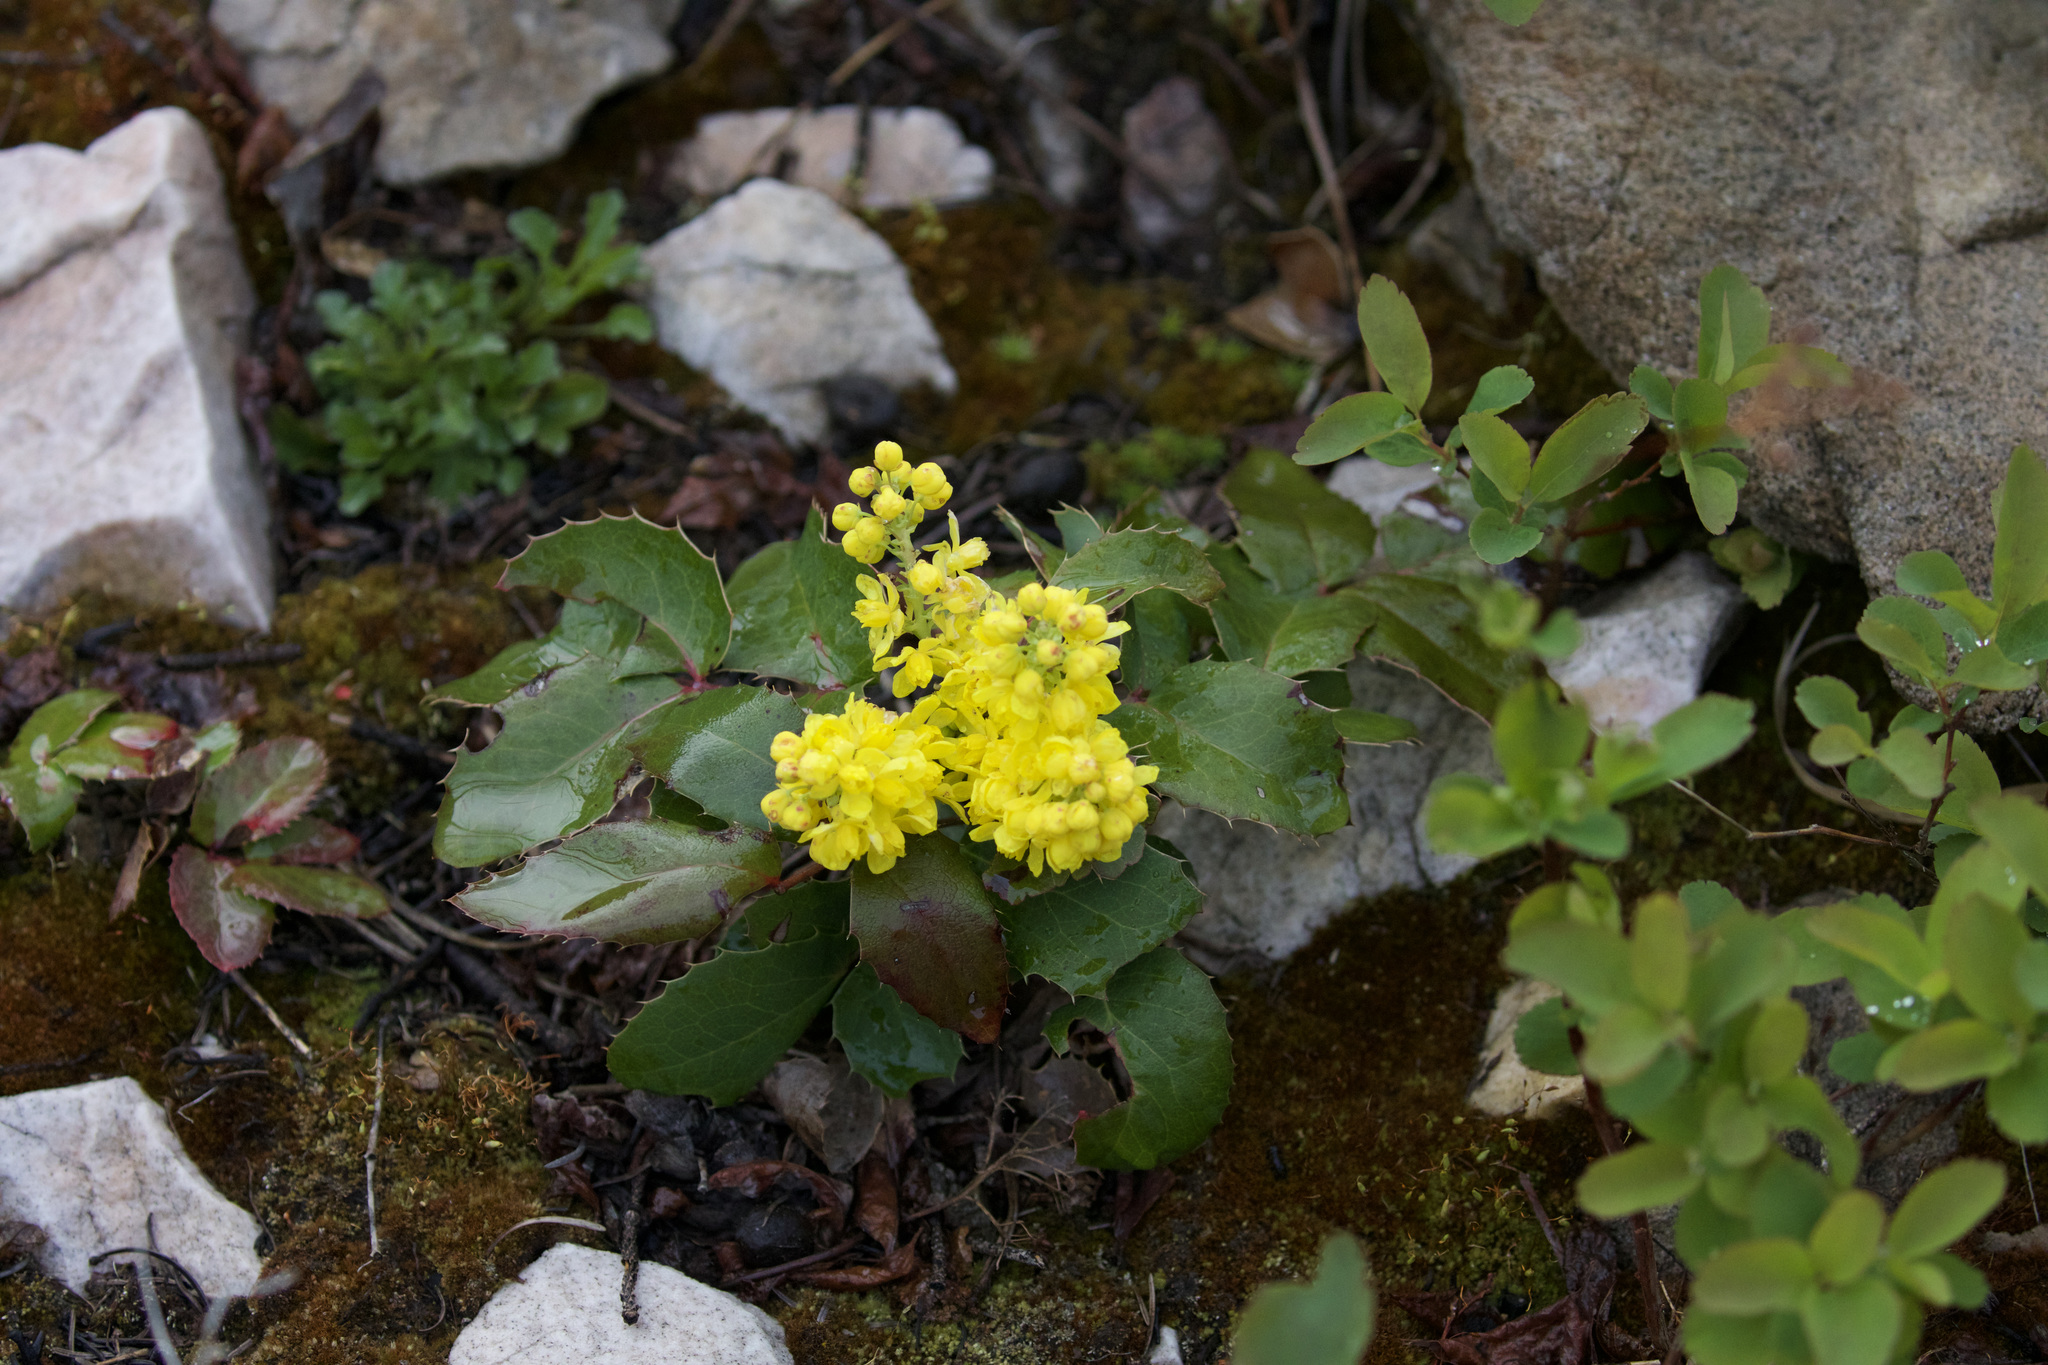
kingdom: Plantae
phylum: Tracheophyta
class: Magnoliopsida
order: Ranunculales
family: Berberidaceae
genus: Mahonia
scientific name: Mahonia repens
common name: Creeping oregon-grape
